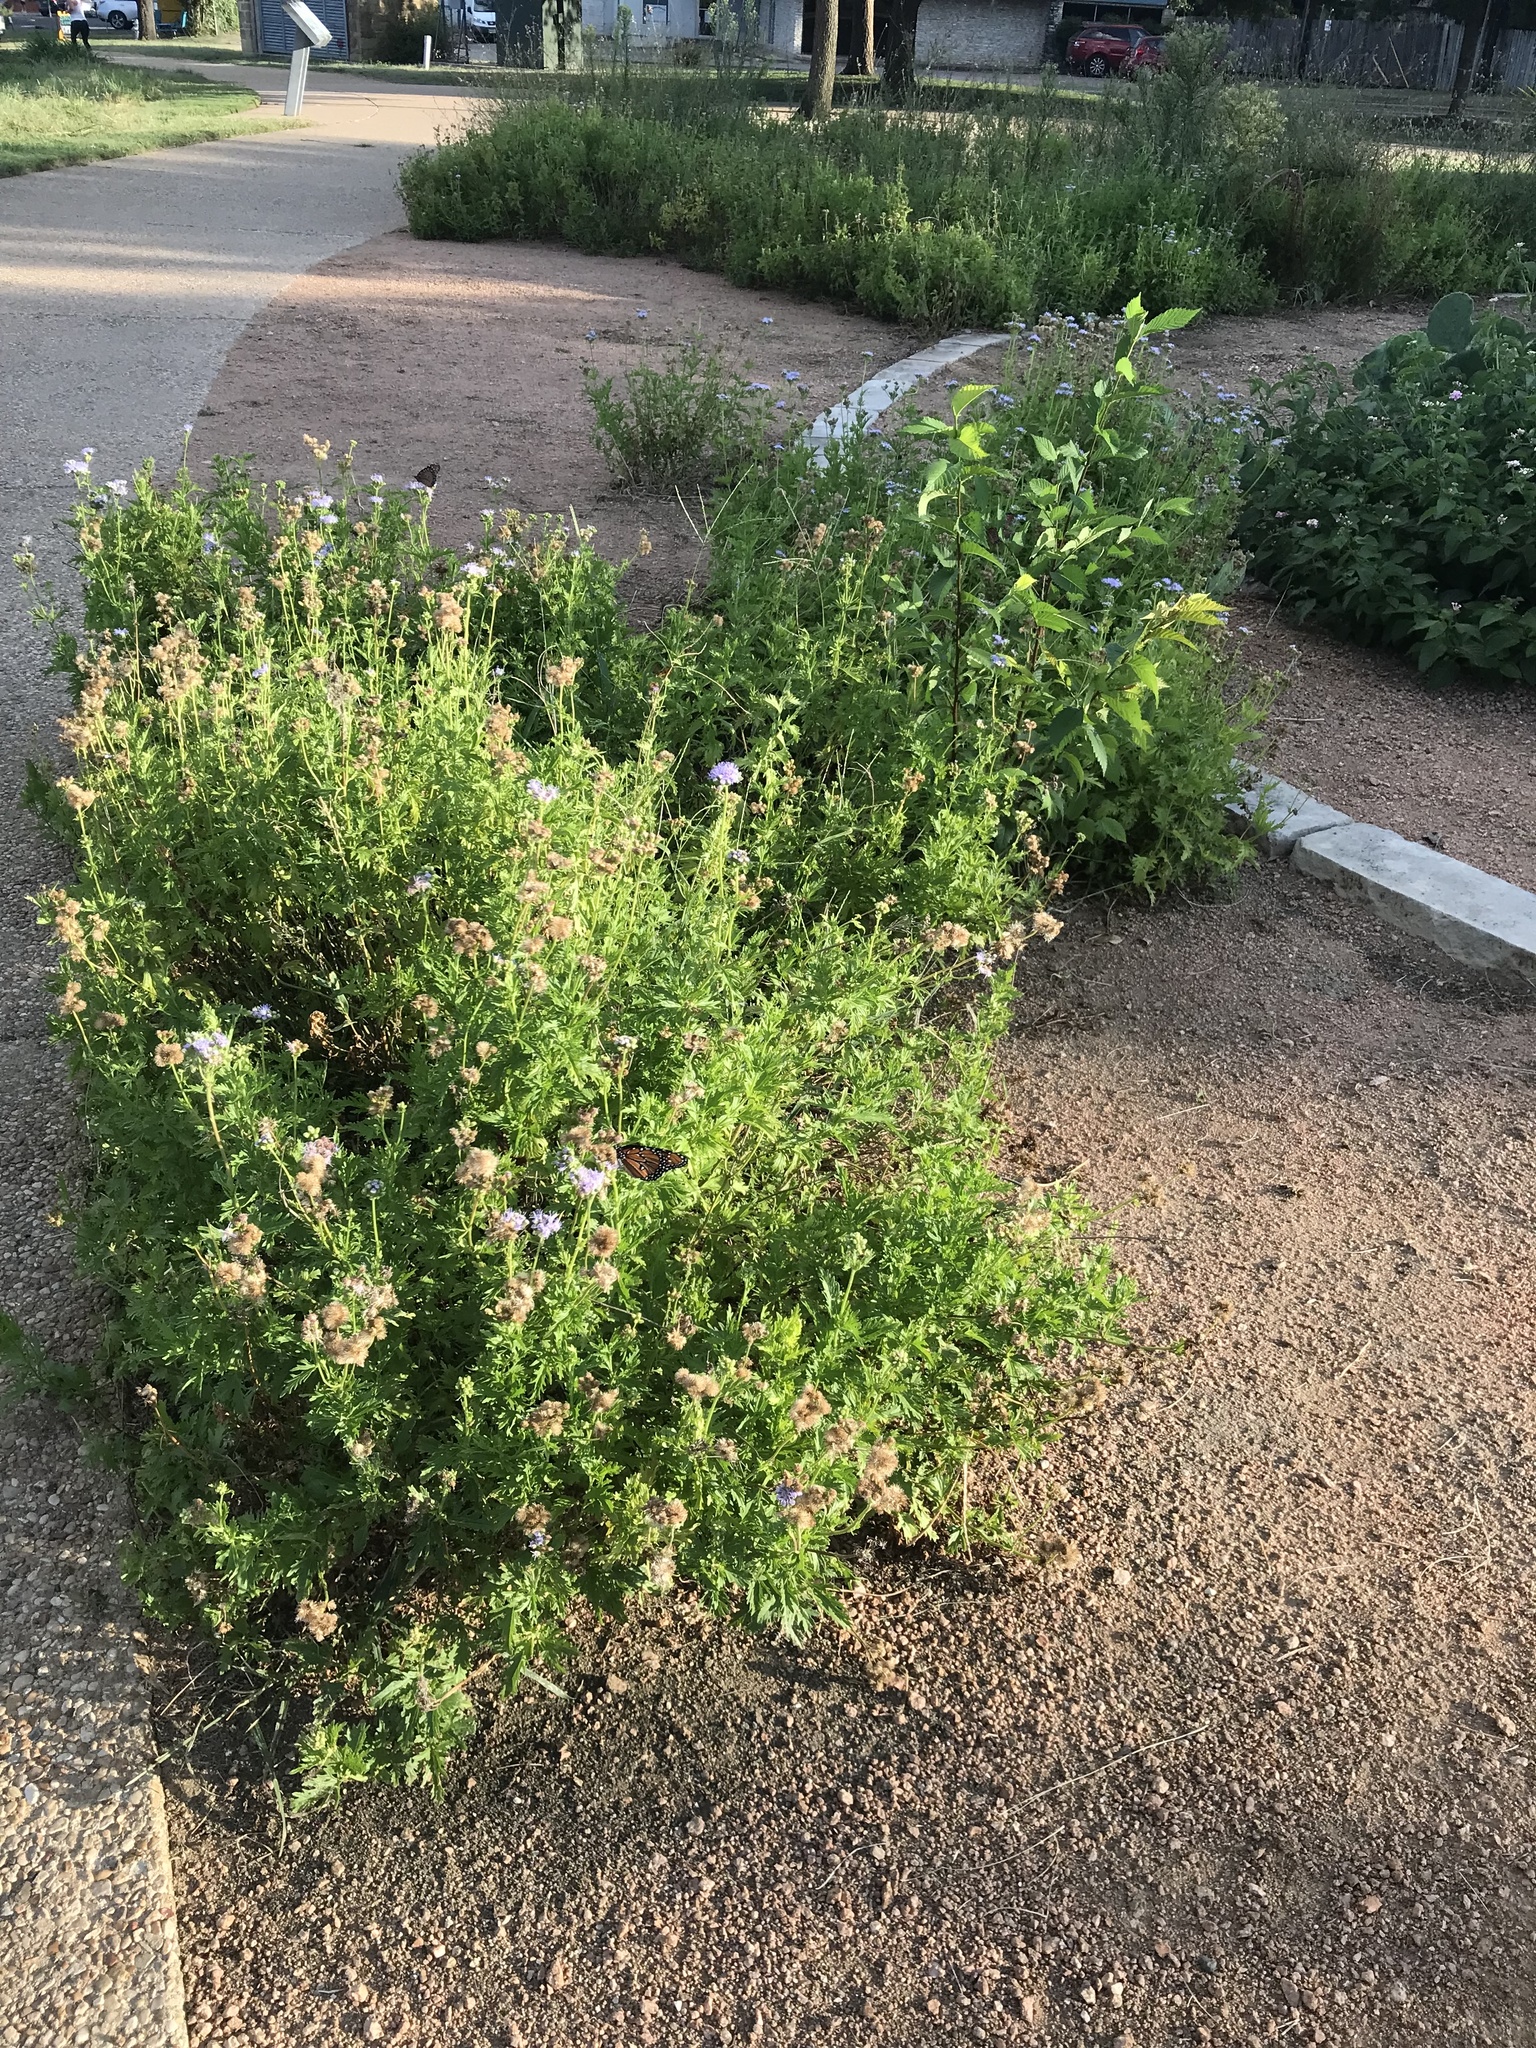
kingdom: Animalia
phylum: Arthropoda
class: Insecta
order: Lepidoptera
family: Nymphalidae
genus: Danaus
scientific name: Danaus gilippus
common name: Queen
